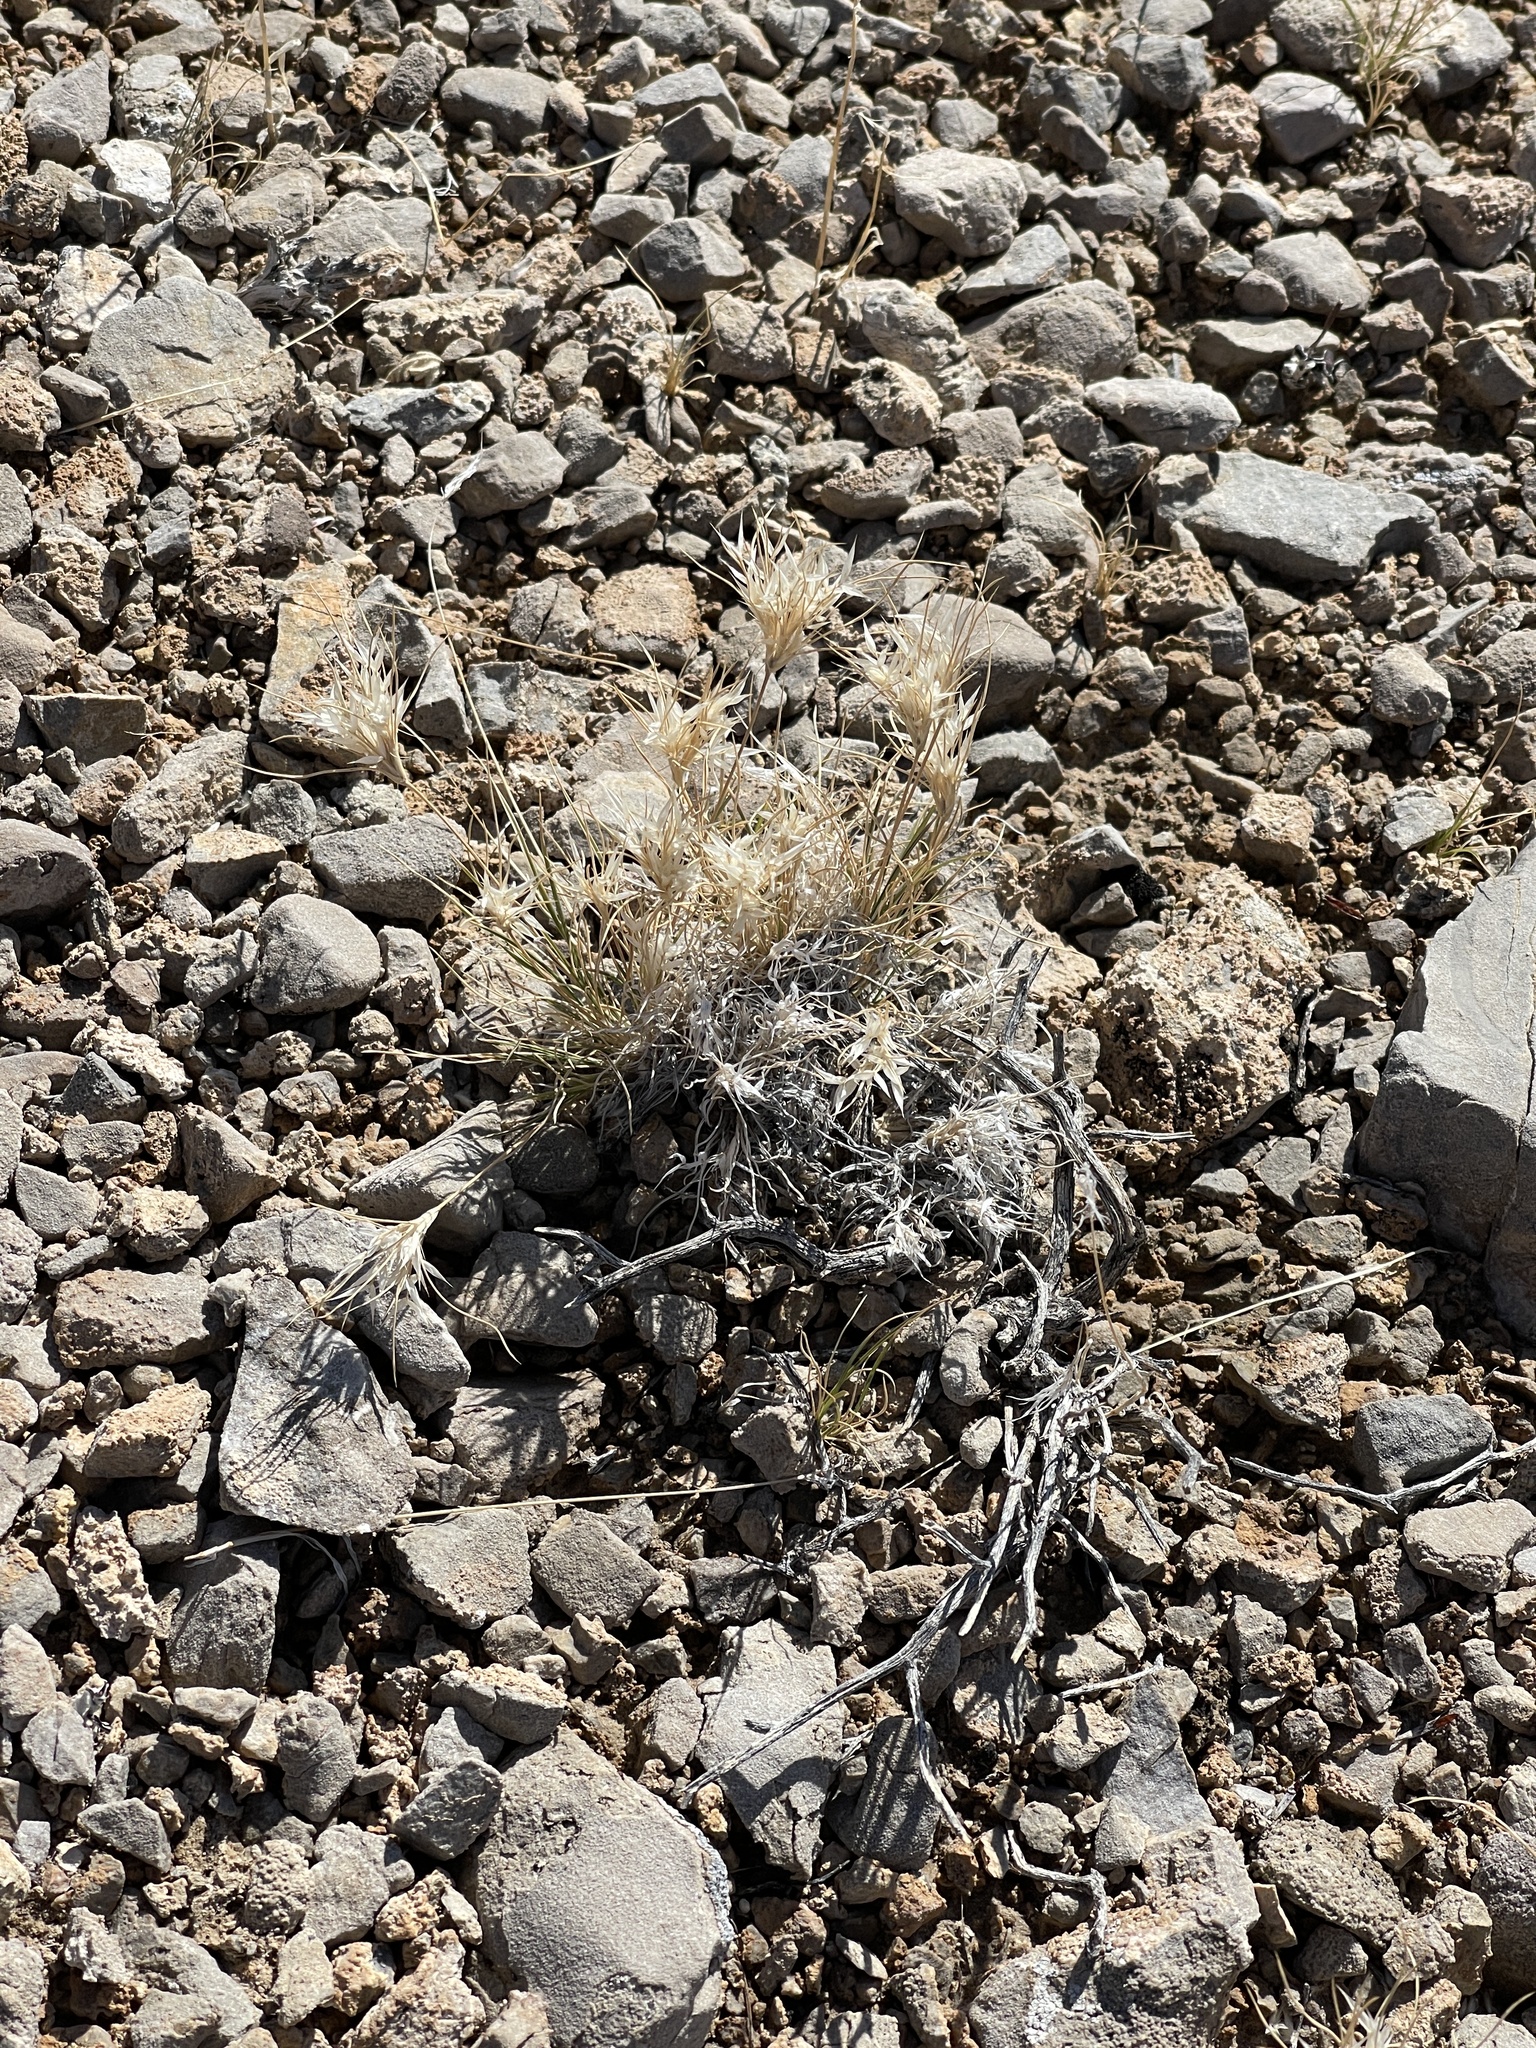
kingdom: Plantae
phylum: Tracheophyta
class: Liliopsida
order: Poales
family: Poaceae
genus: Dasyochloa
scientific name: Dasyochloa pulchella
